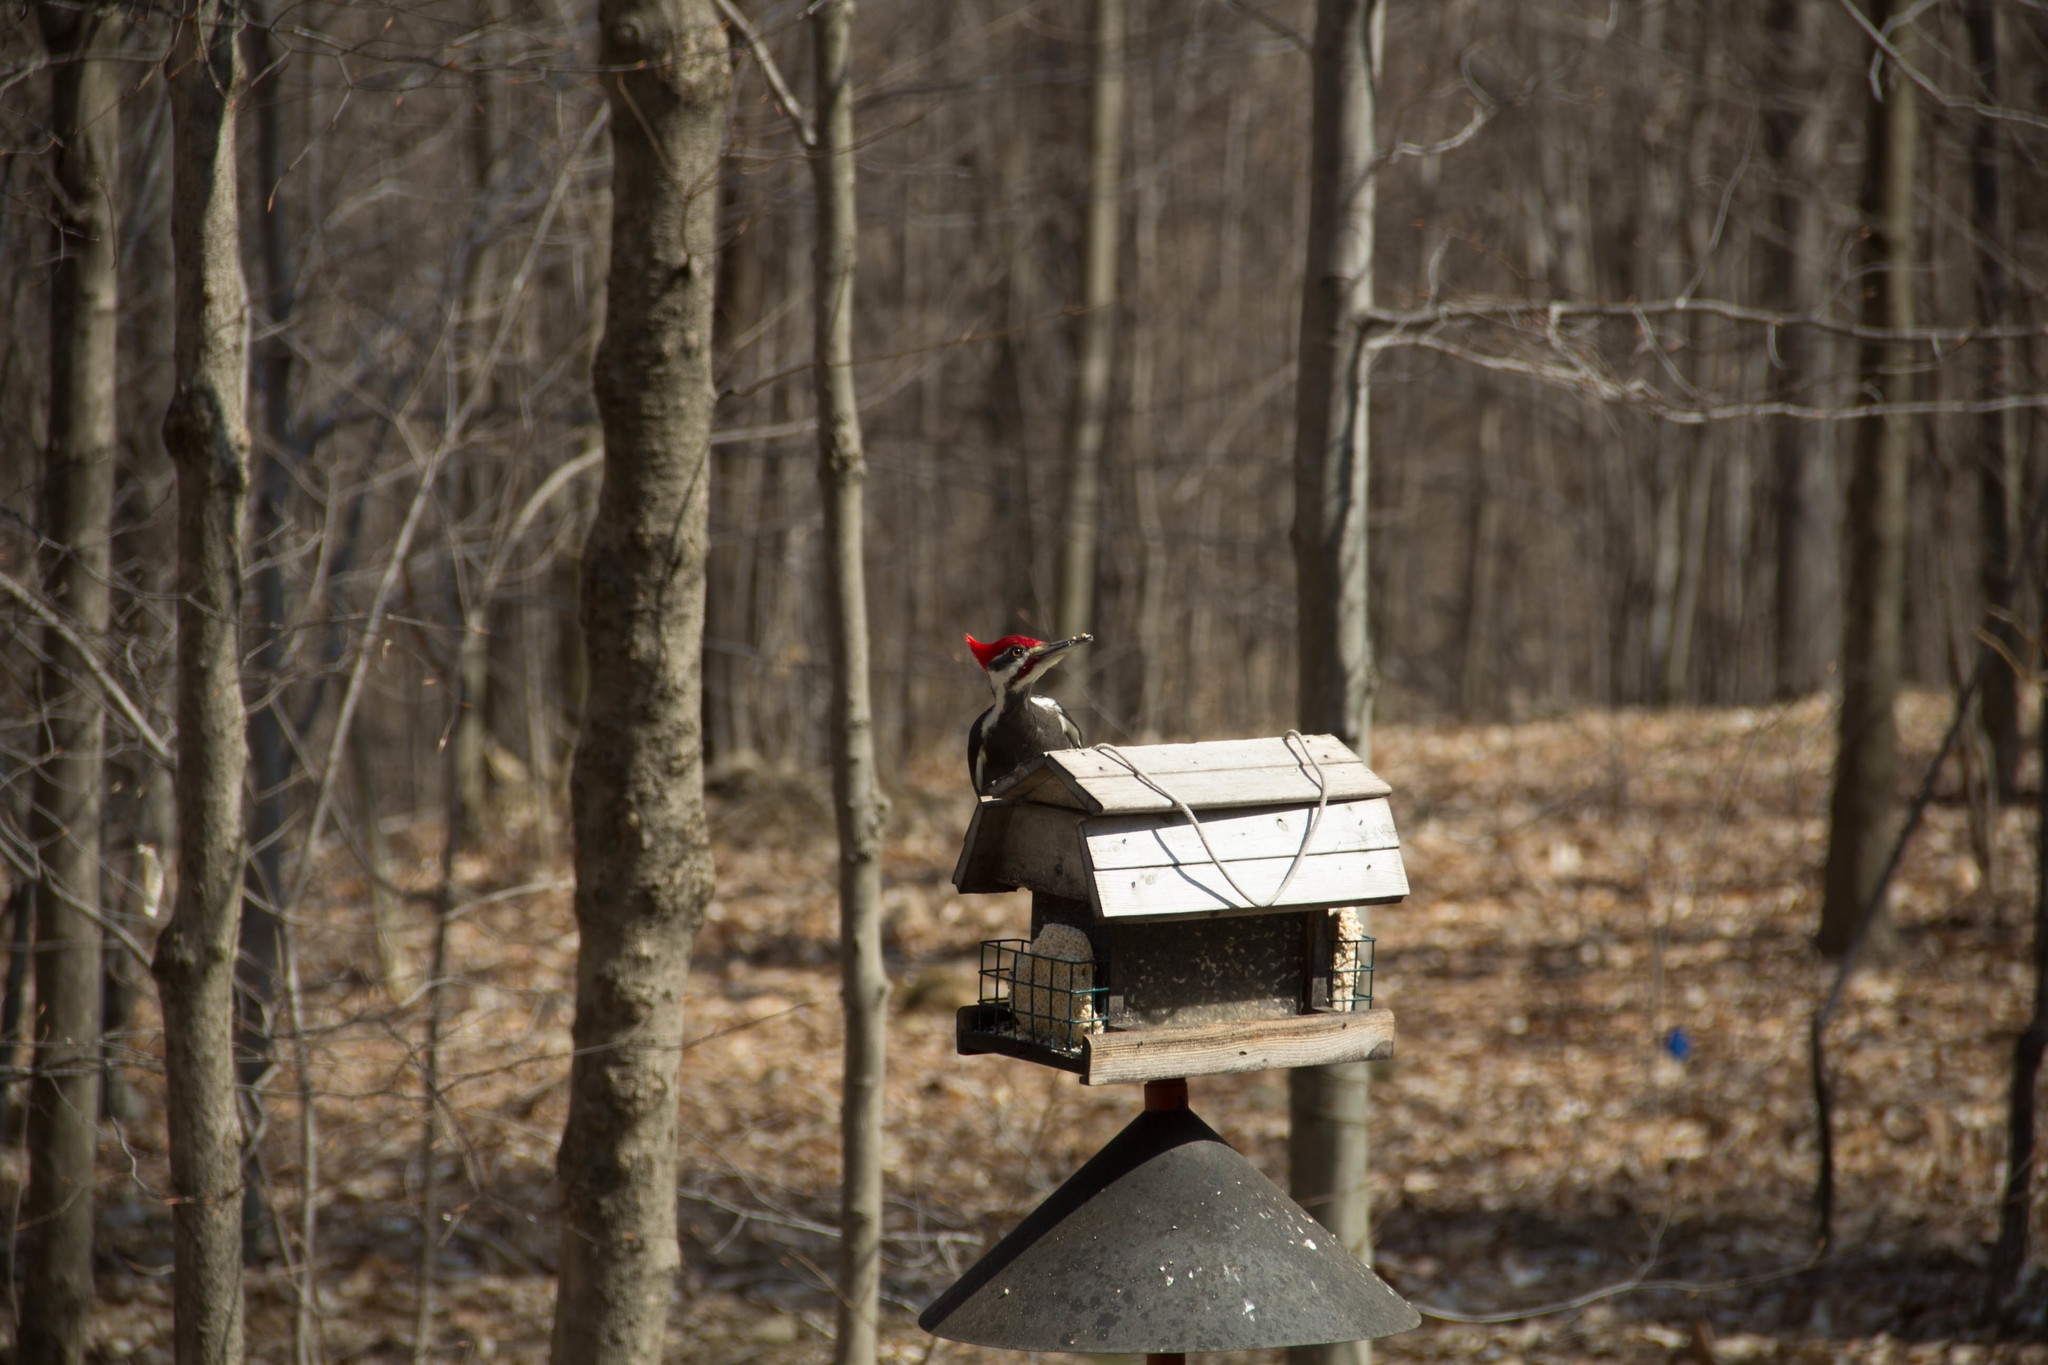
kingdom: Animalia
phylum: Chordata
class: Aves
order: Piciformes
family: Picidae
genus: Dryocopus
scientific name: Dryocopus pileatus
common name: Pileated woodpecker
